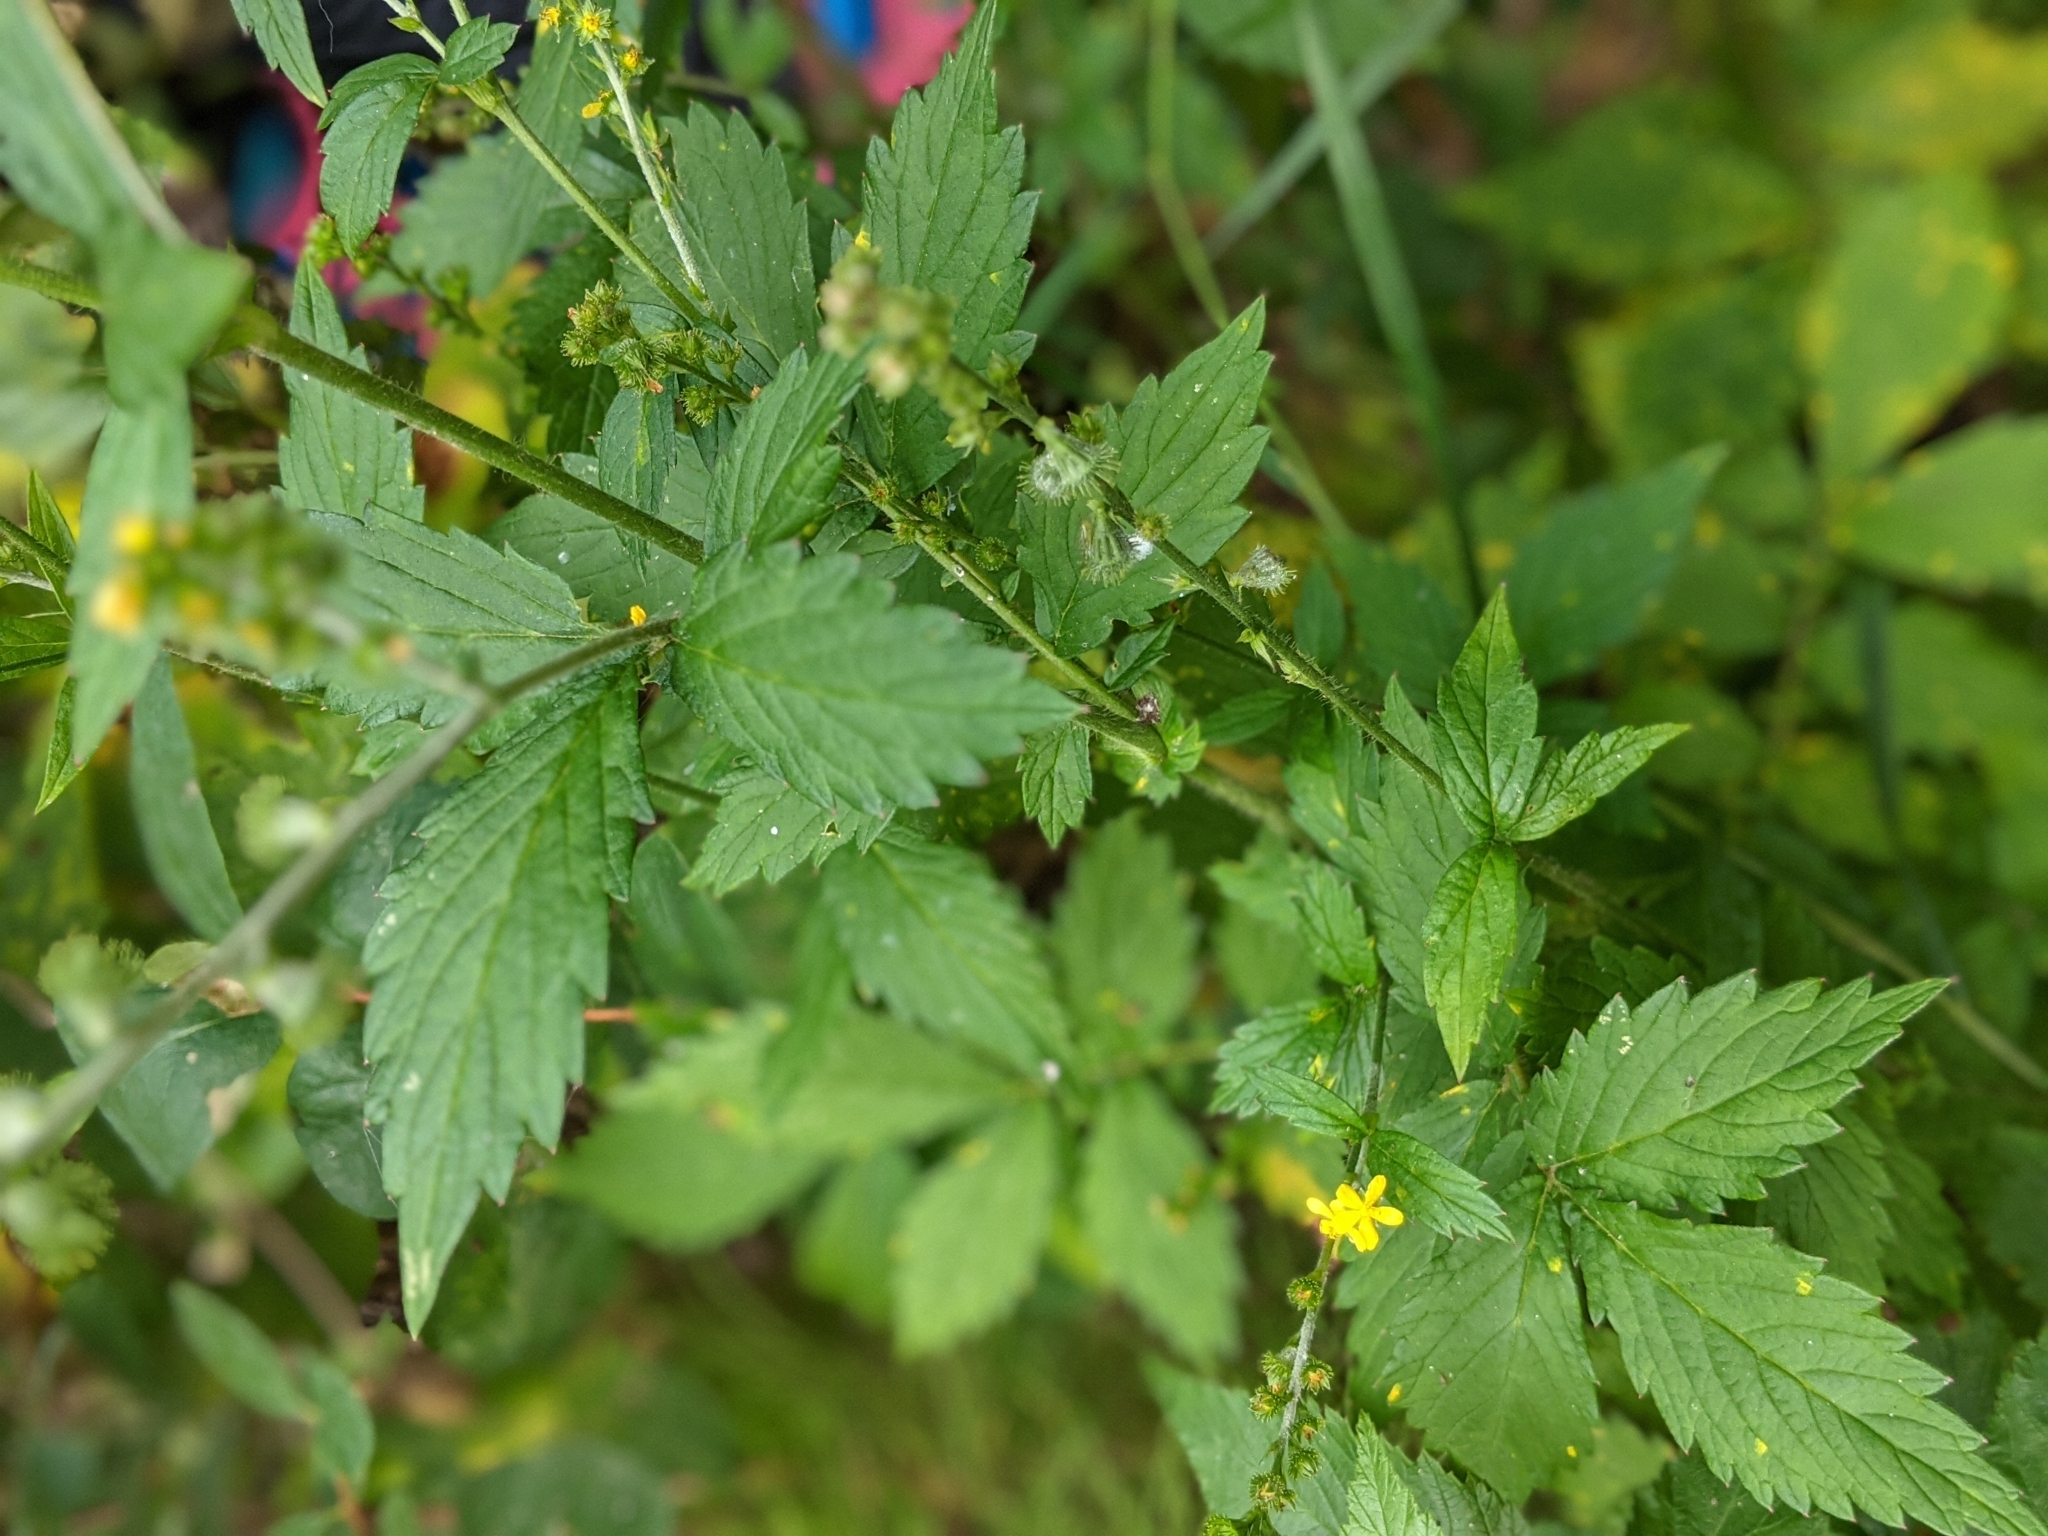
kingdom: Plantae
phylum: Tracheophyta
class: Magnoliopsida
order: Rosales
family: Rosaceae
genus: Agrimonia
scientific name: Agrimonia striata
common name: Britton's agrimony
